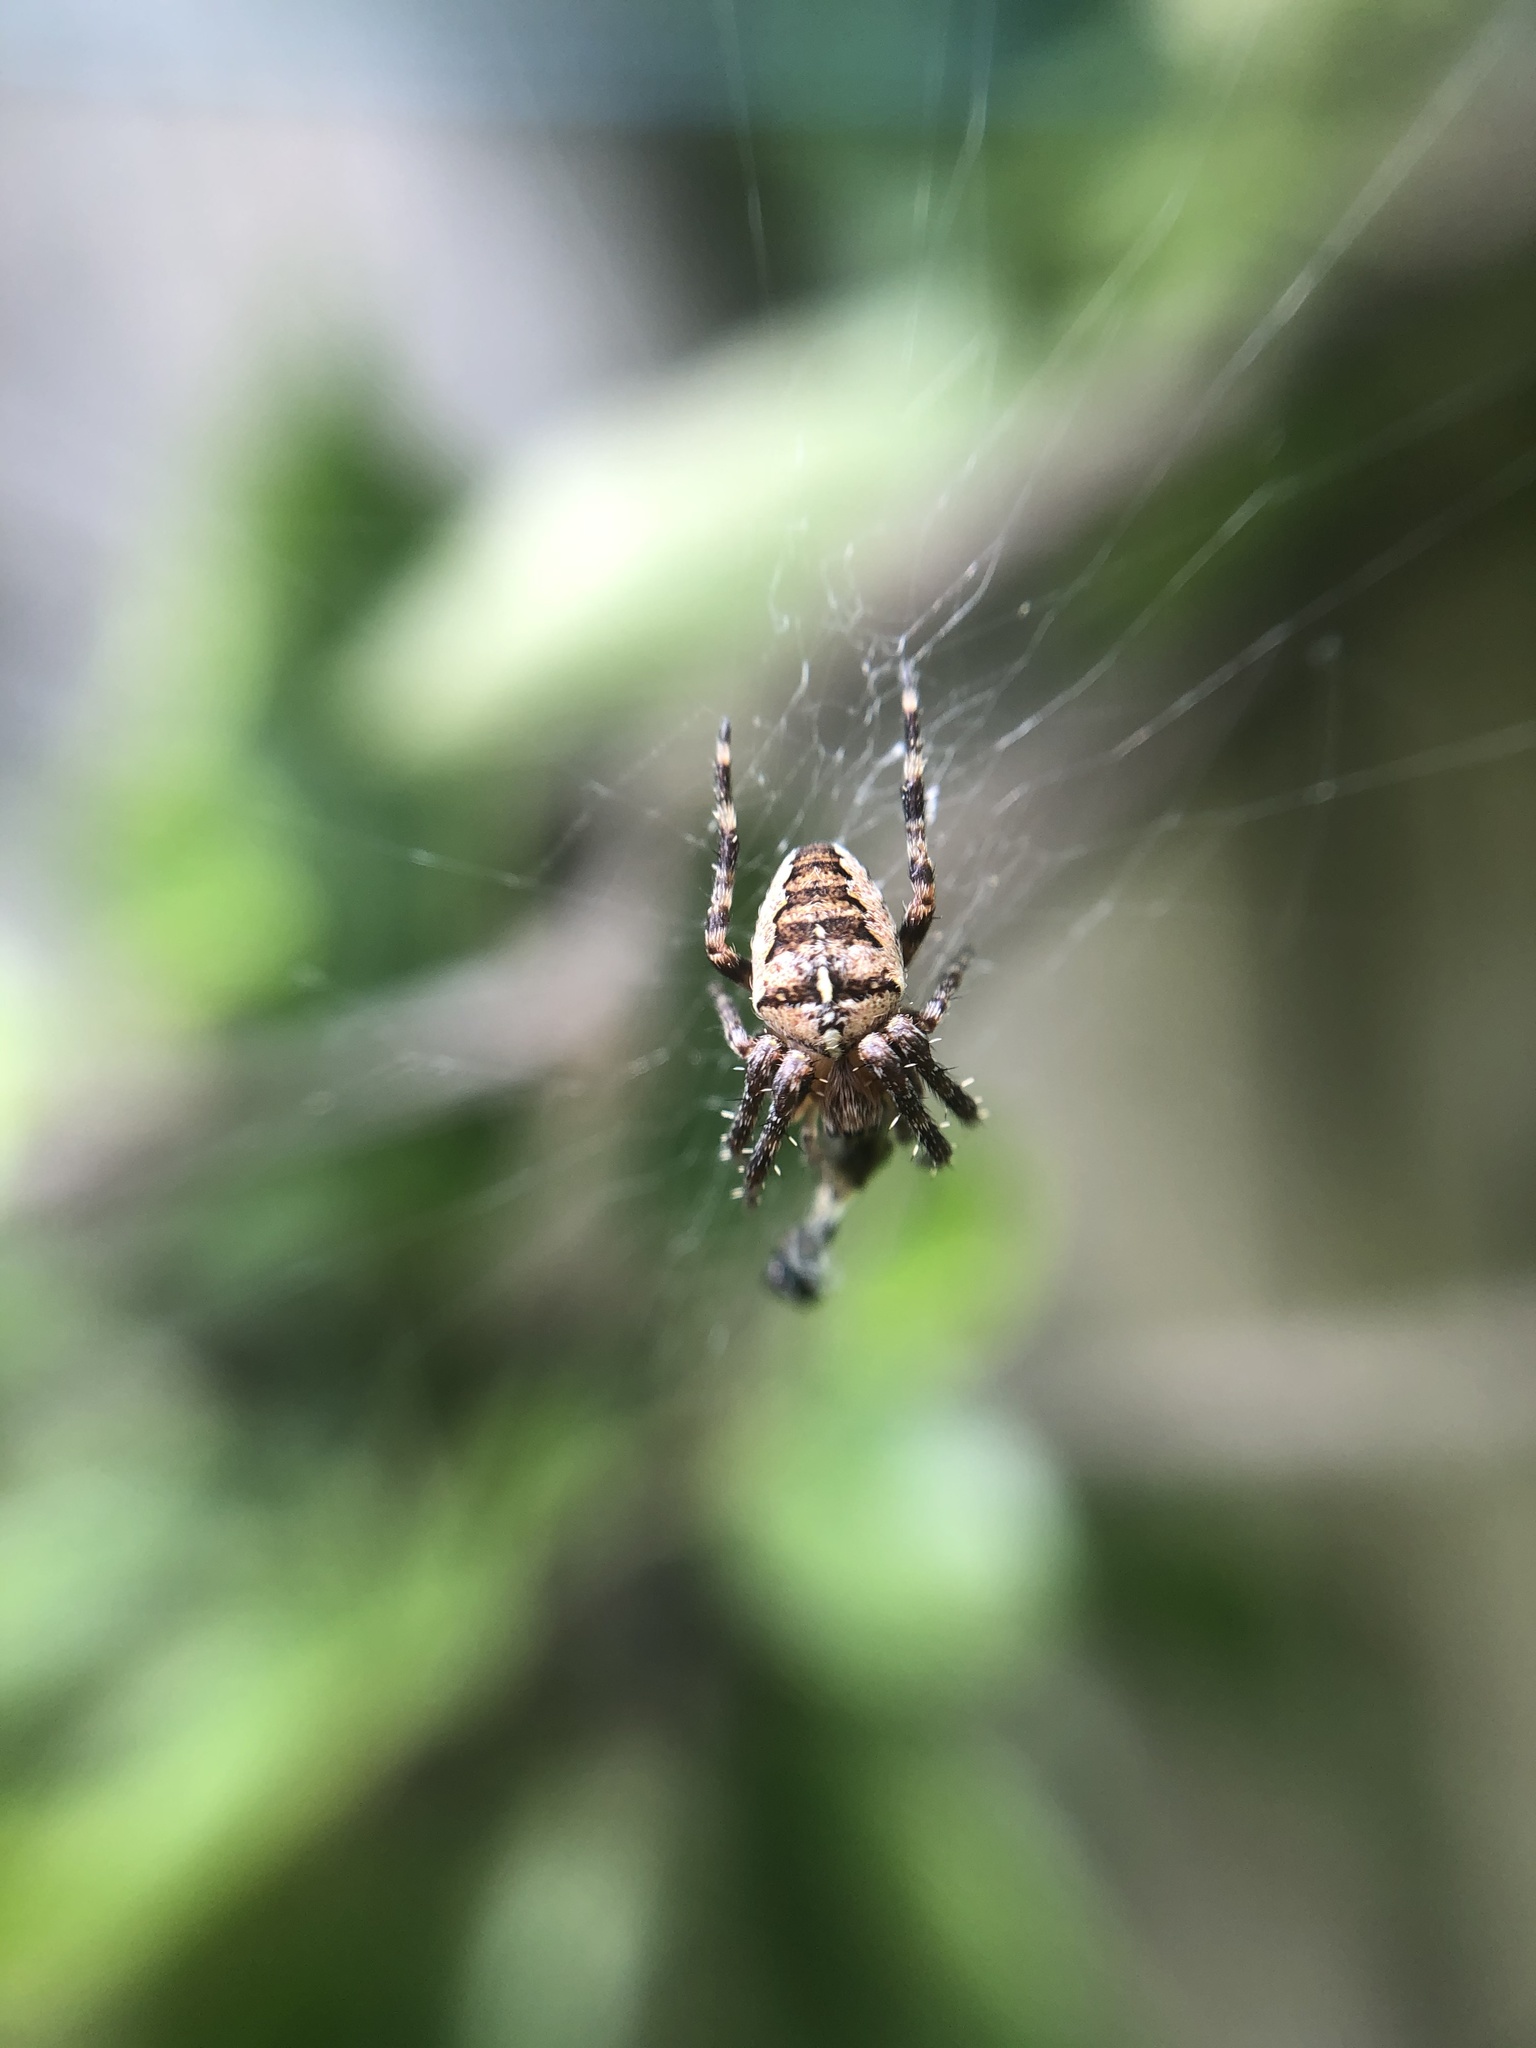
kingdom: Animalia
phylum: Arthropoda
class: Arachnida
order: Araneae
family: Araneidae
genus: Araneus
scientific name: Araneus diadematus
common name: Cross orbweaver
